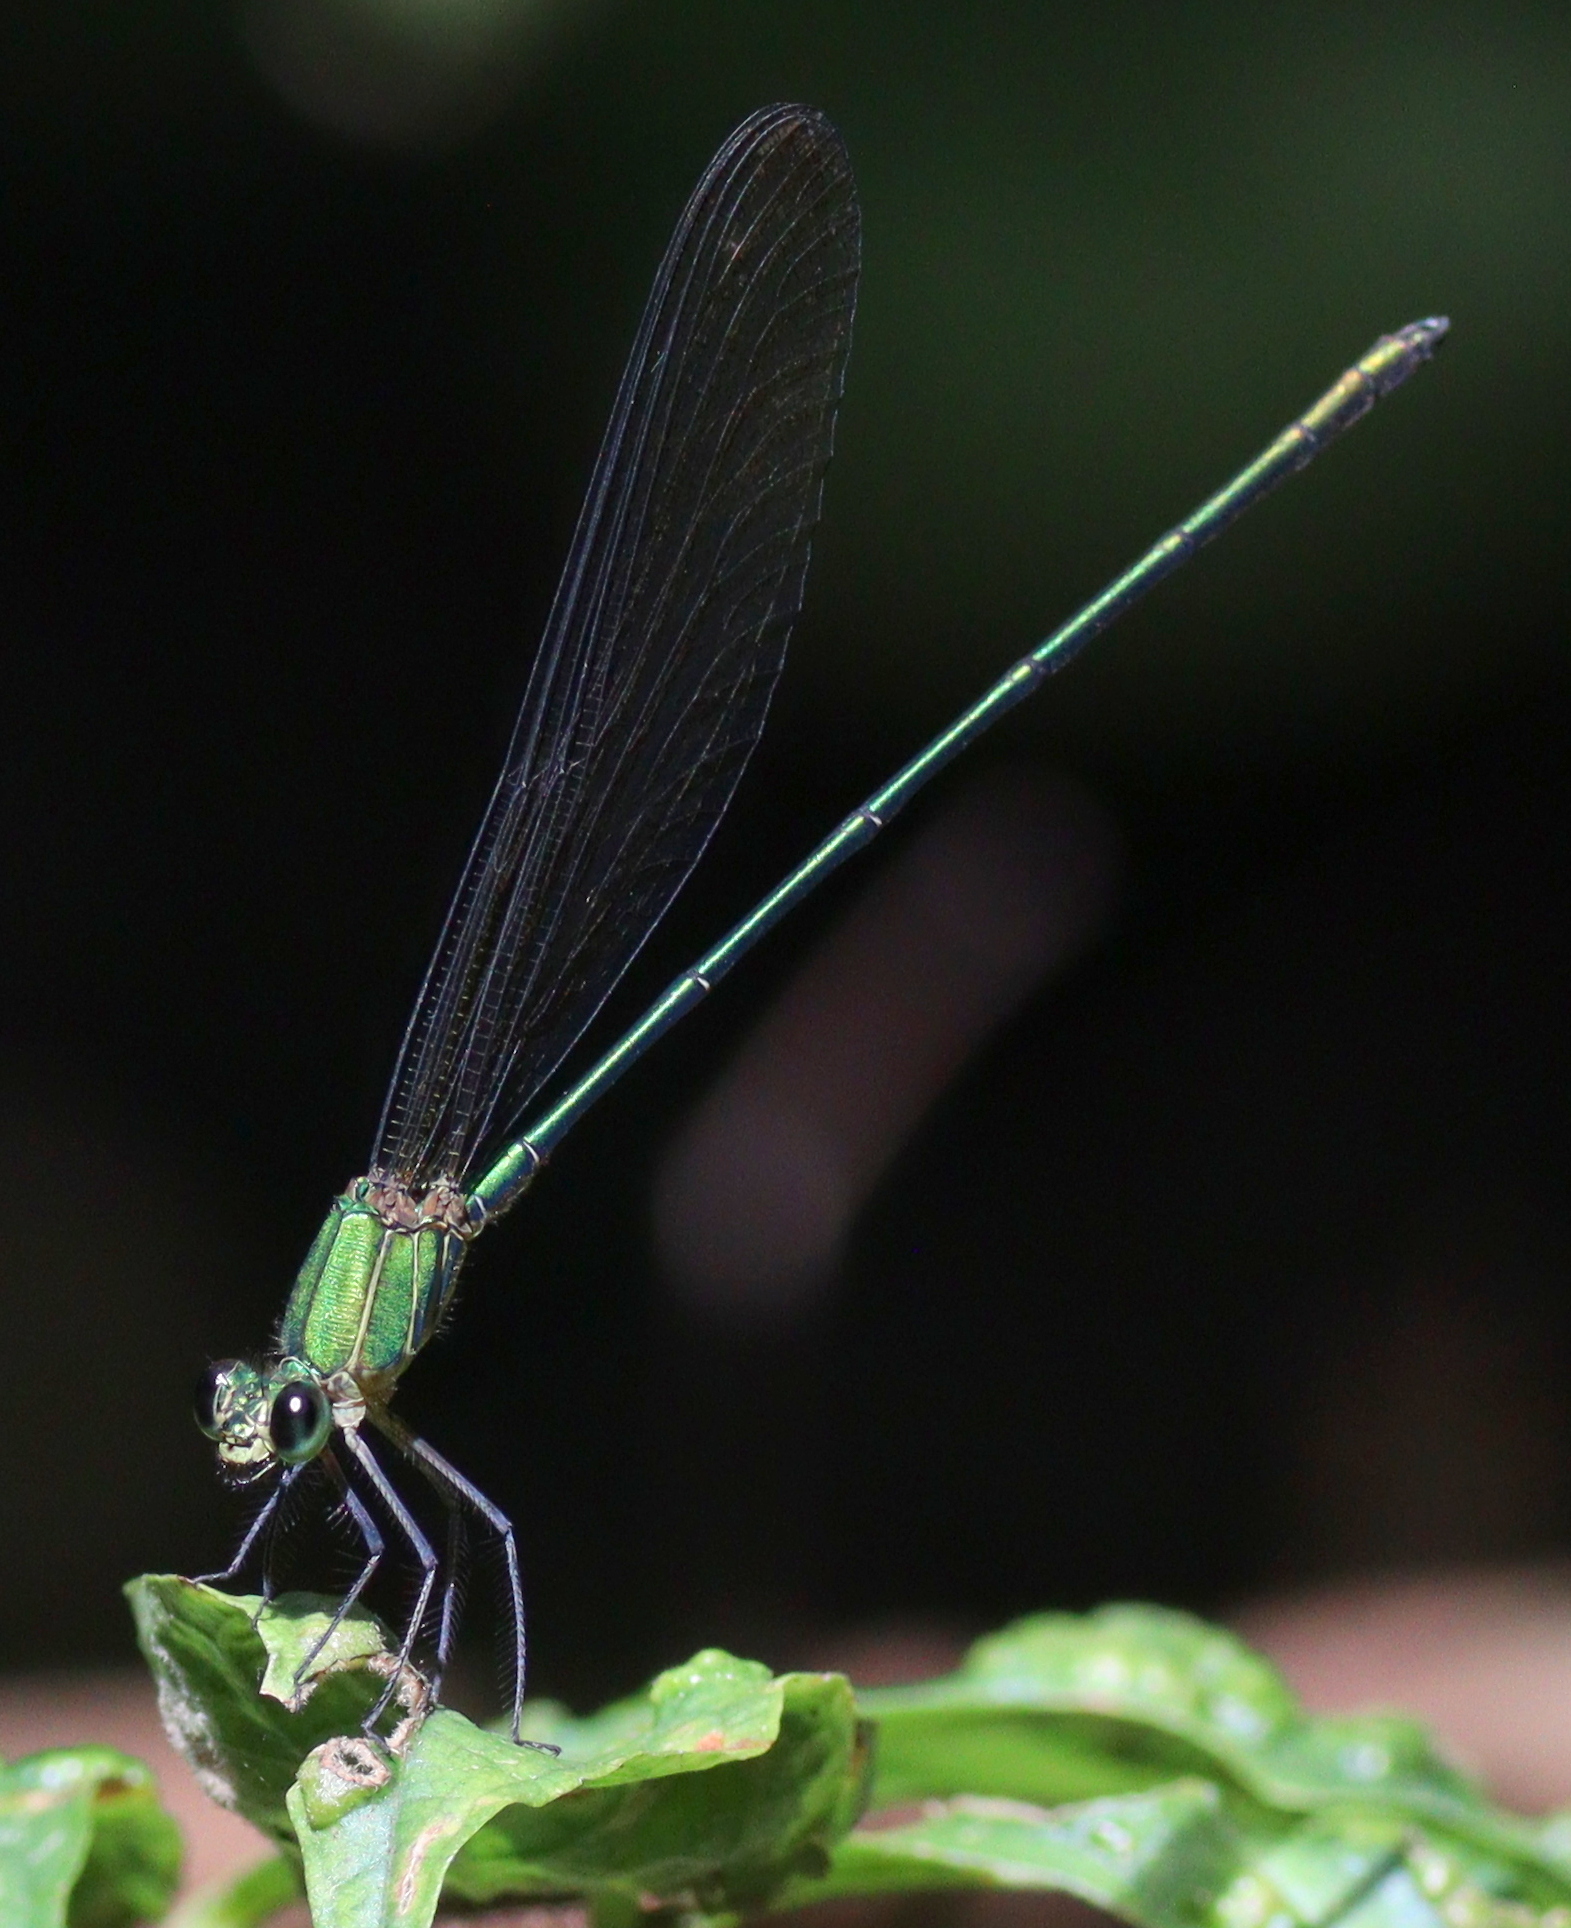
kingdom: Animalia
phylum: Arthropoda
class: Insecta
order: Odonata
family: Calopterygidae
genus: Vestalis
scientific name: Vestalis gracilis
